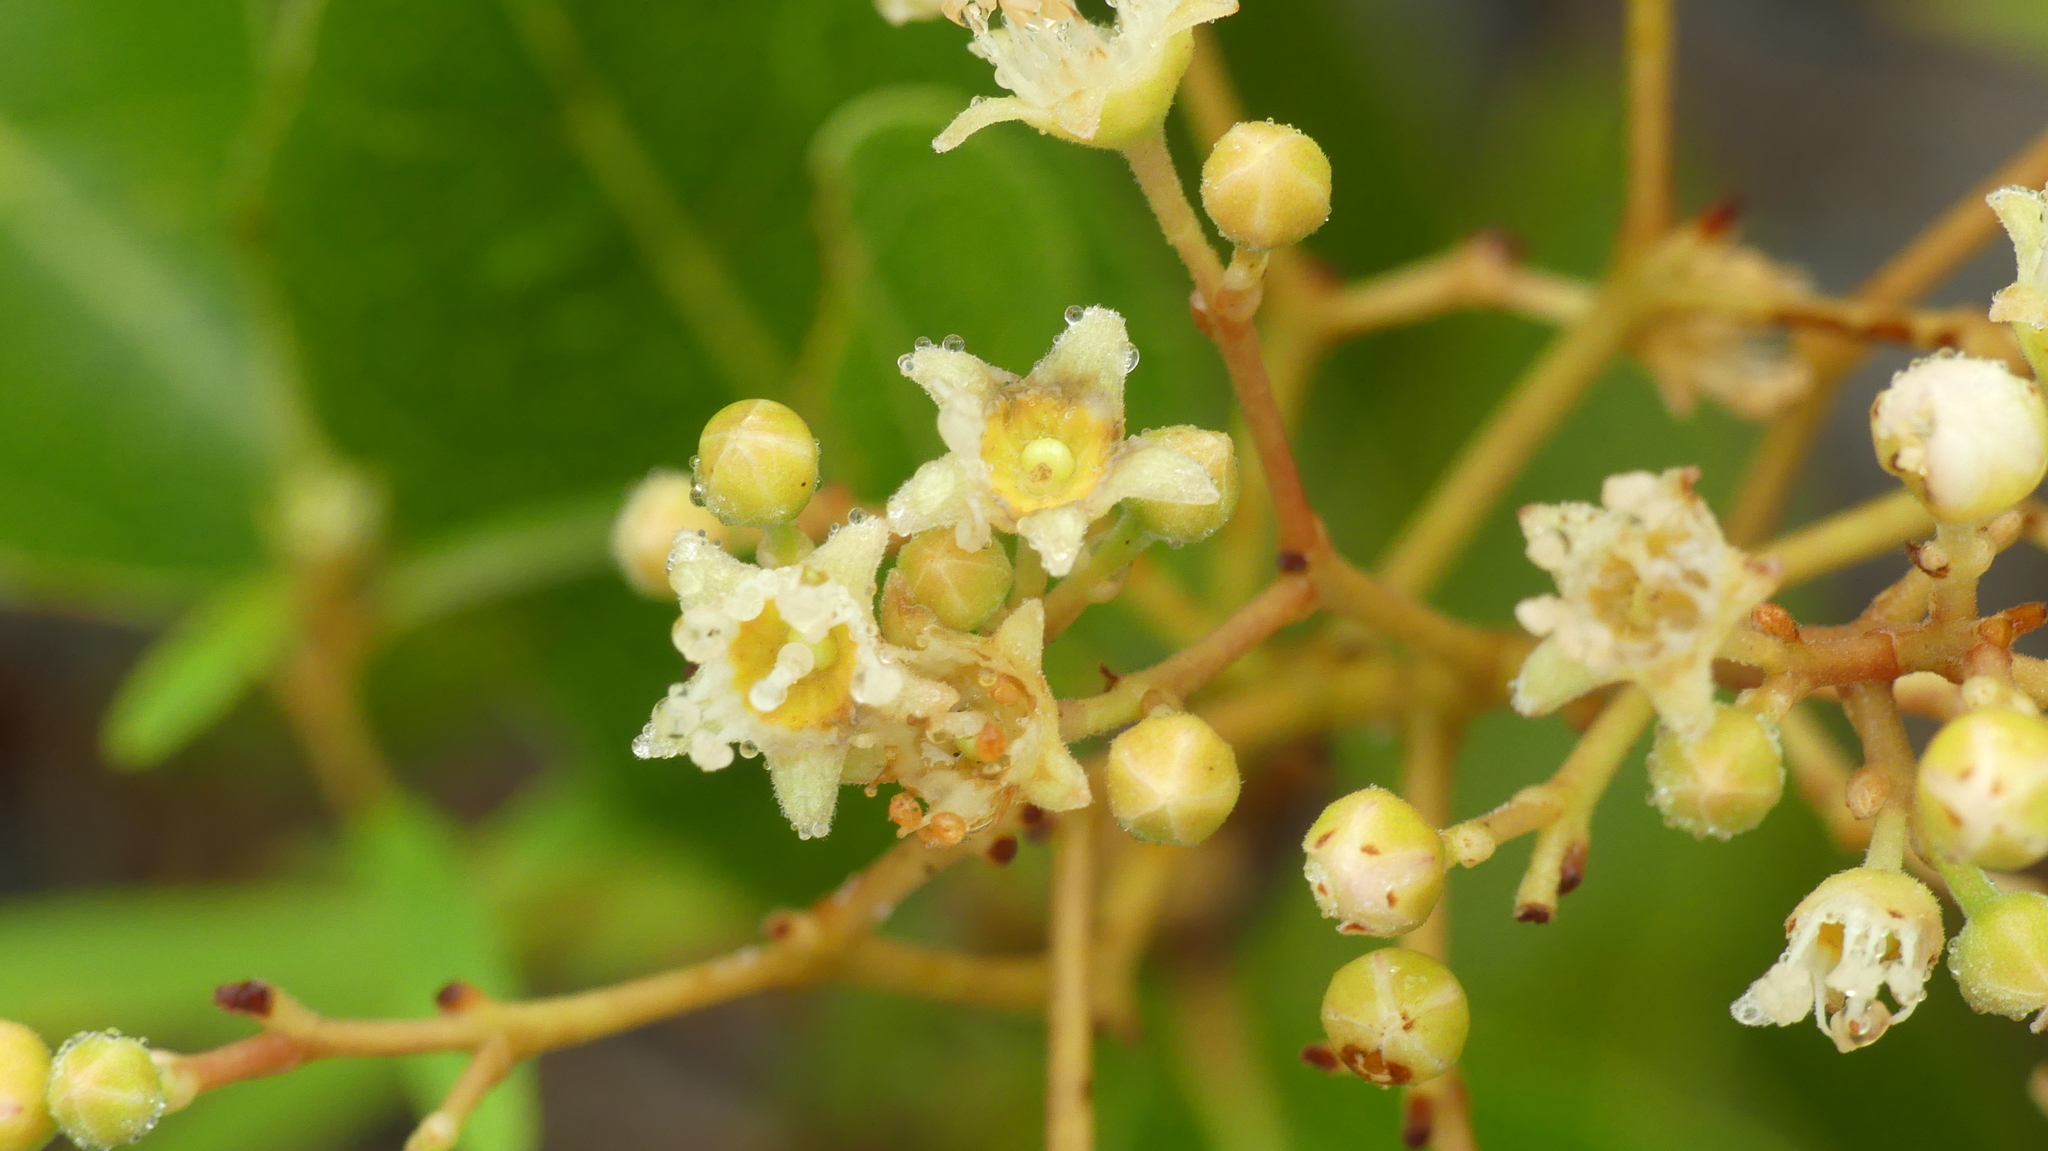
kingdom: Plantae
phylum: Tracheophyta
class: Magnoliopsida
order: Malpighiales
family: Chrysobalanaceae
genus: Geobalanus
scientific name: Geobalanus oblongifolius
